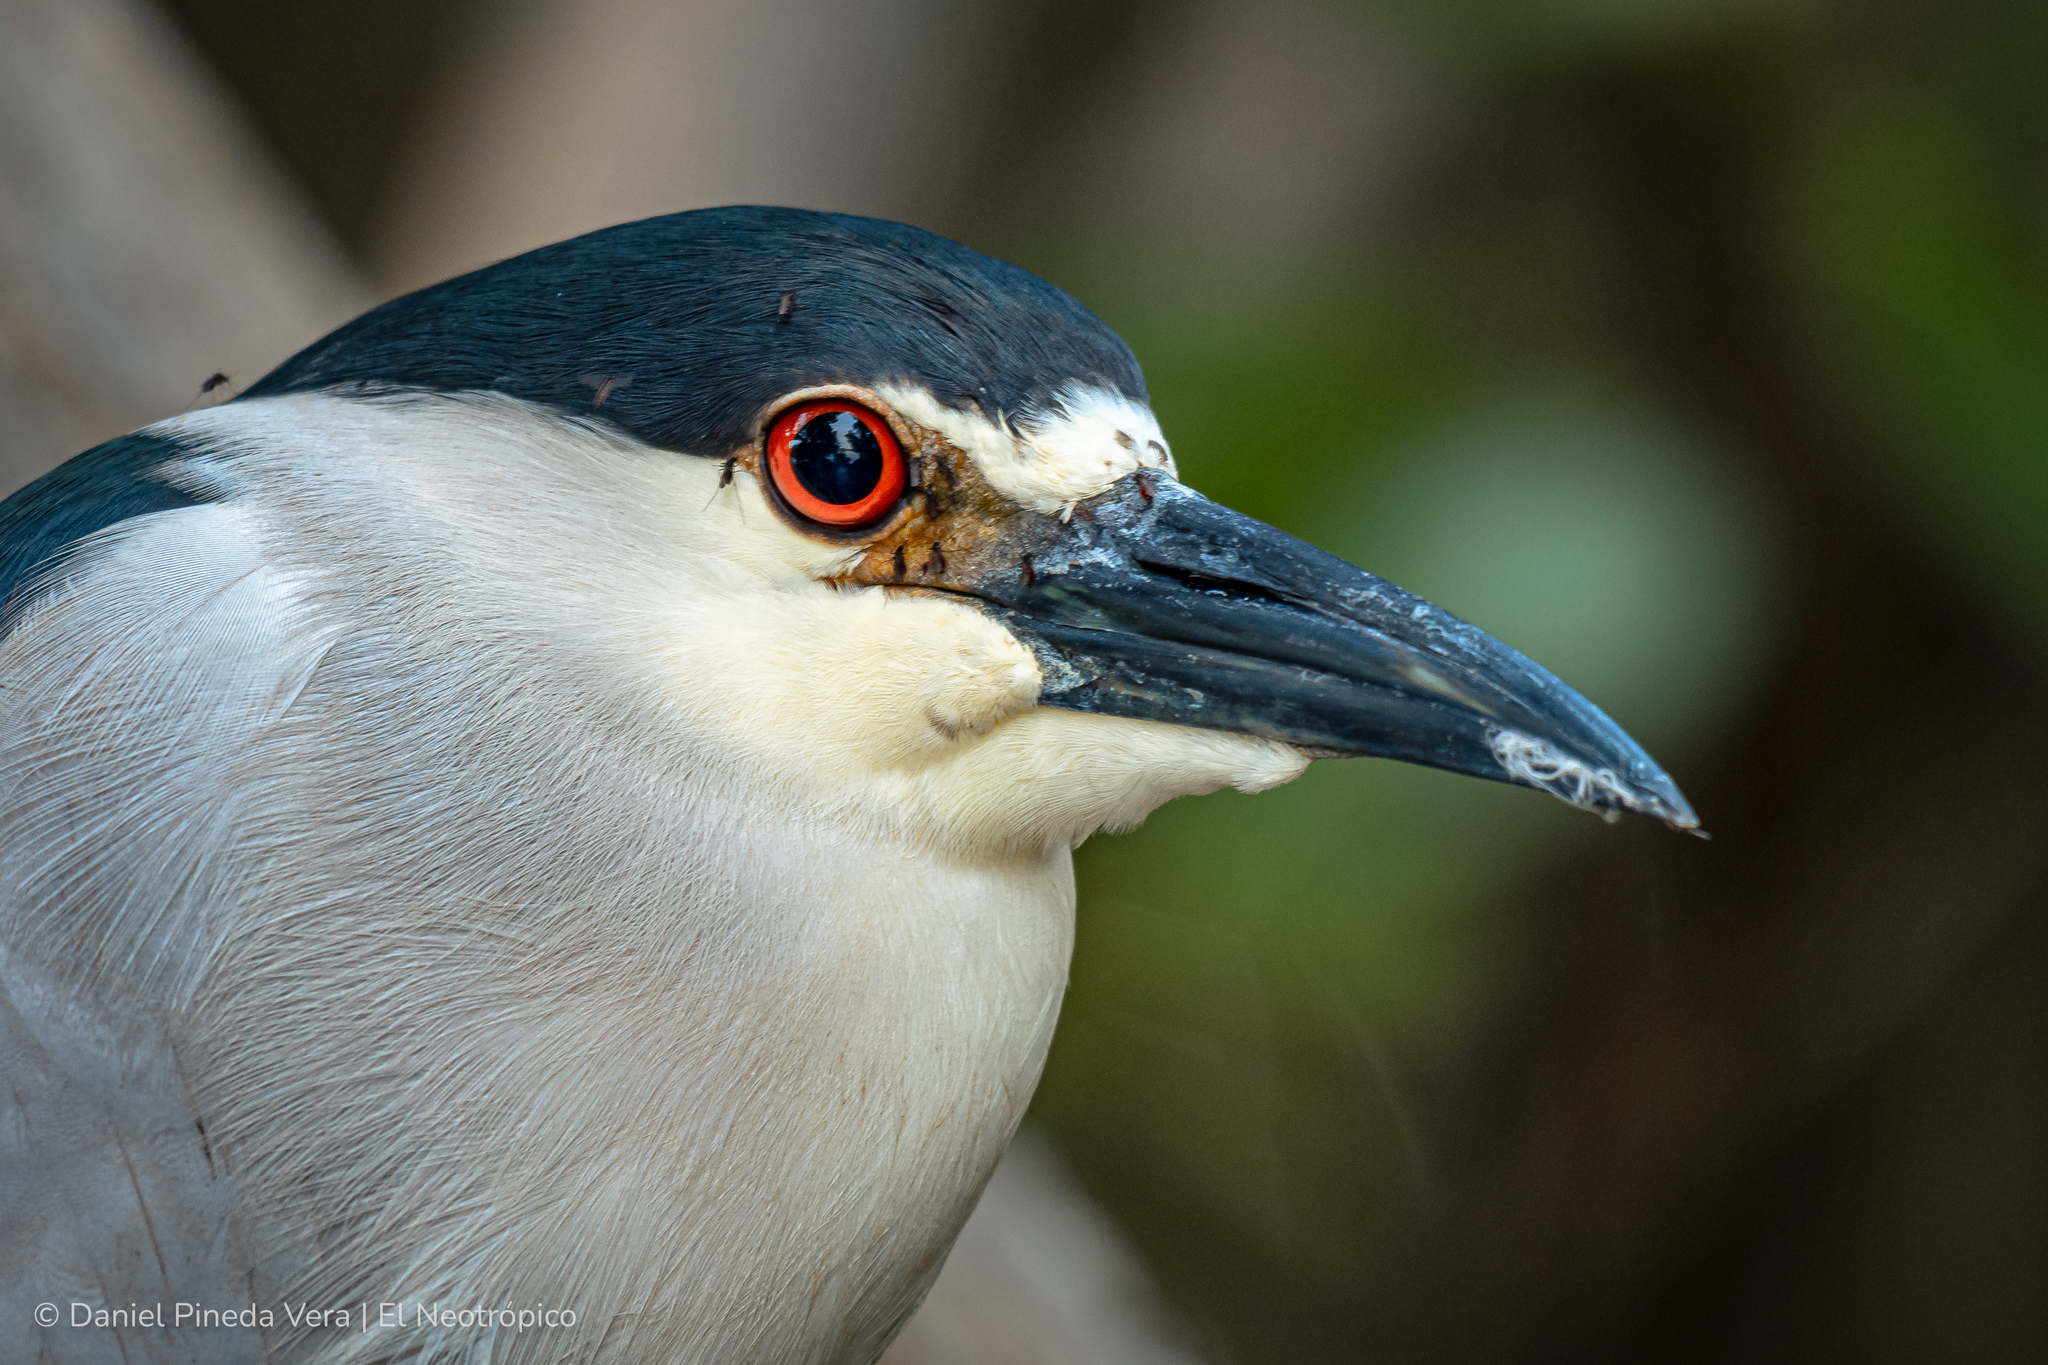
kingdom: Animalia
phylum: Chordata
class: Aves
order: Pelecaniformes
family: Ardeidae
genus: Nycticorax
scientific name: Nycticorax nycticorax
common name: Black-crowned night heron
